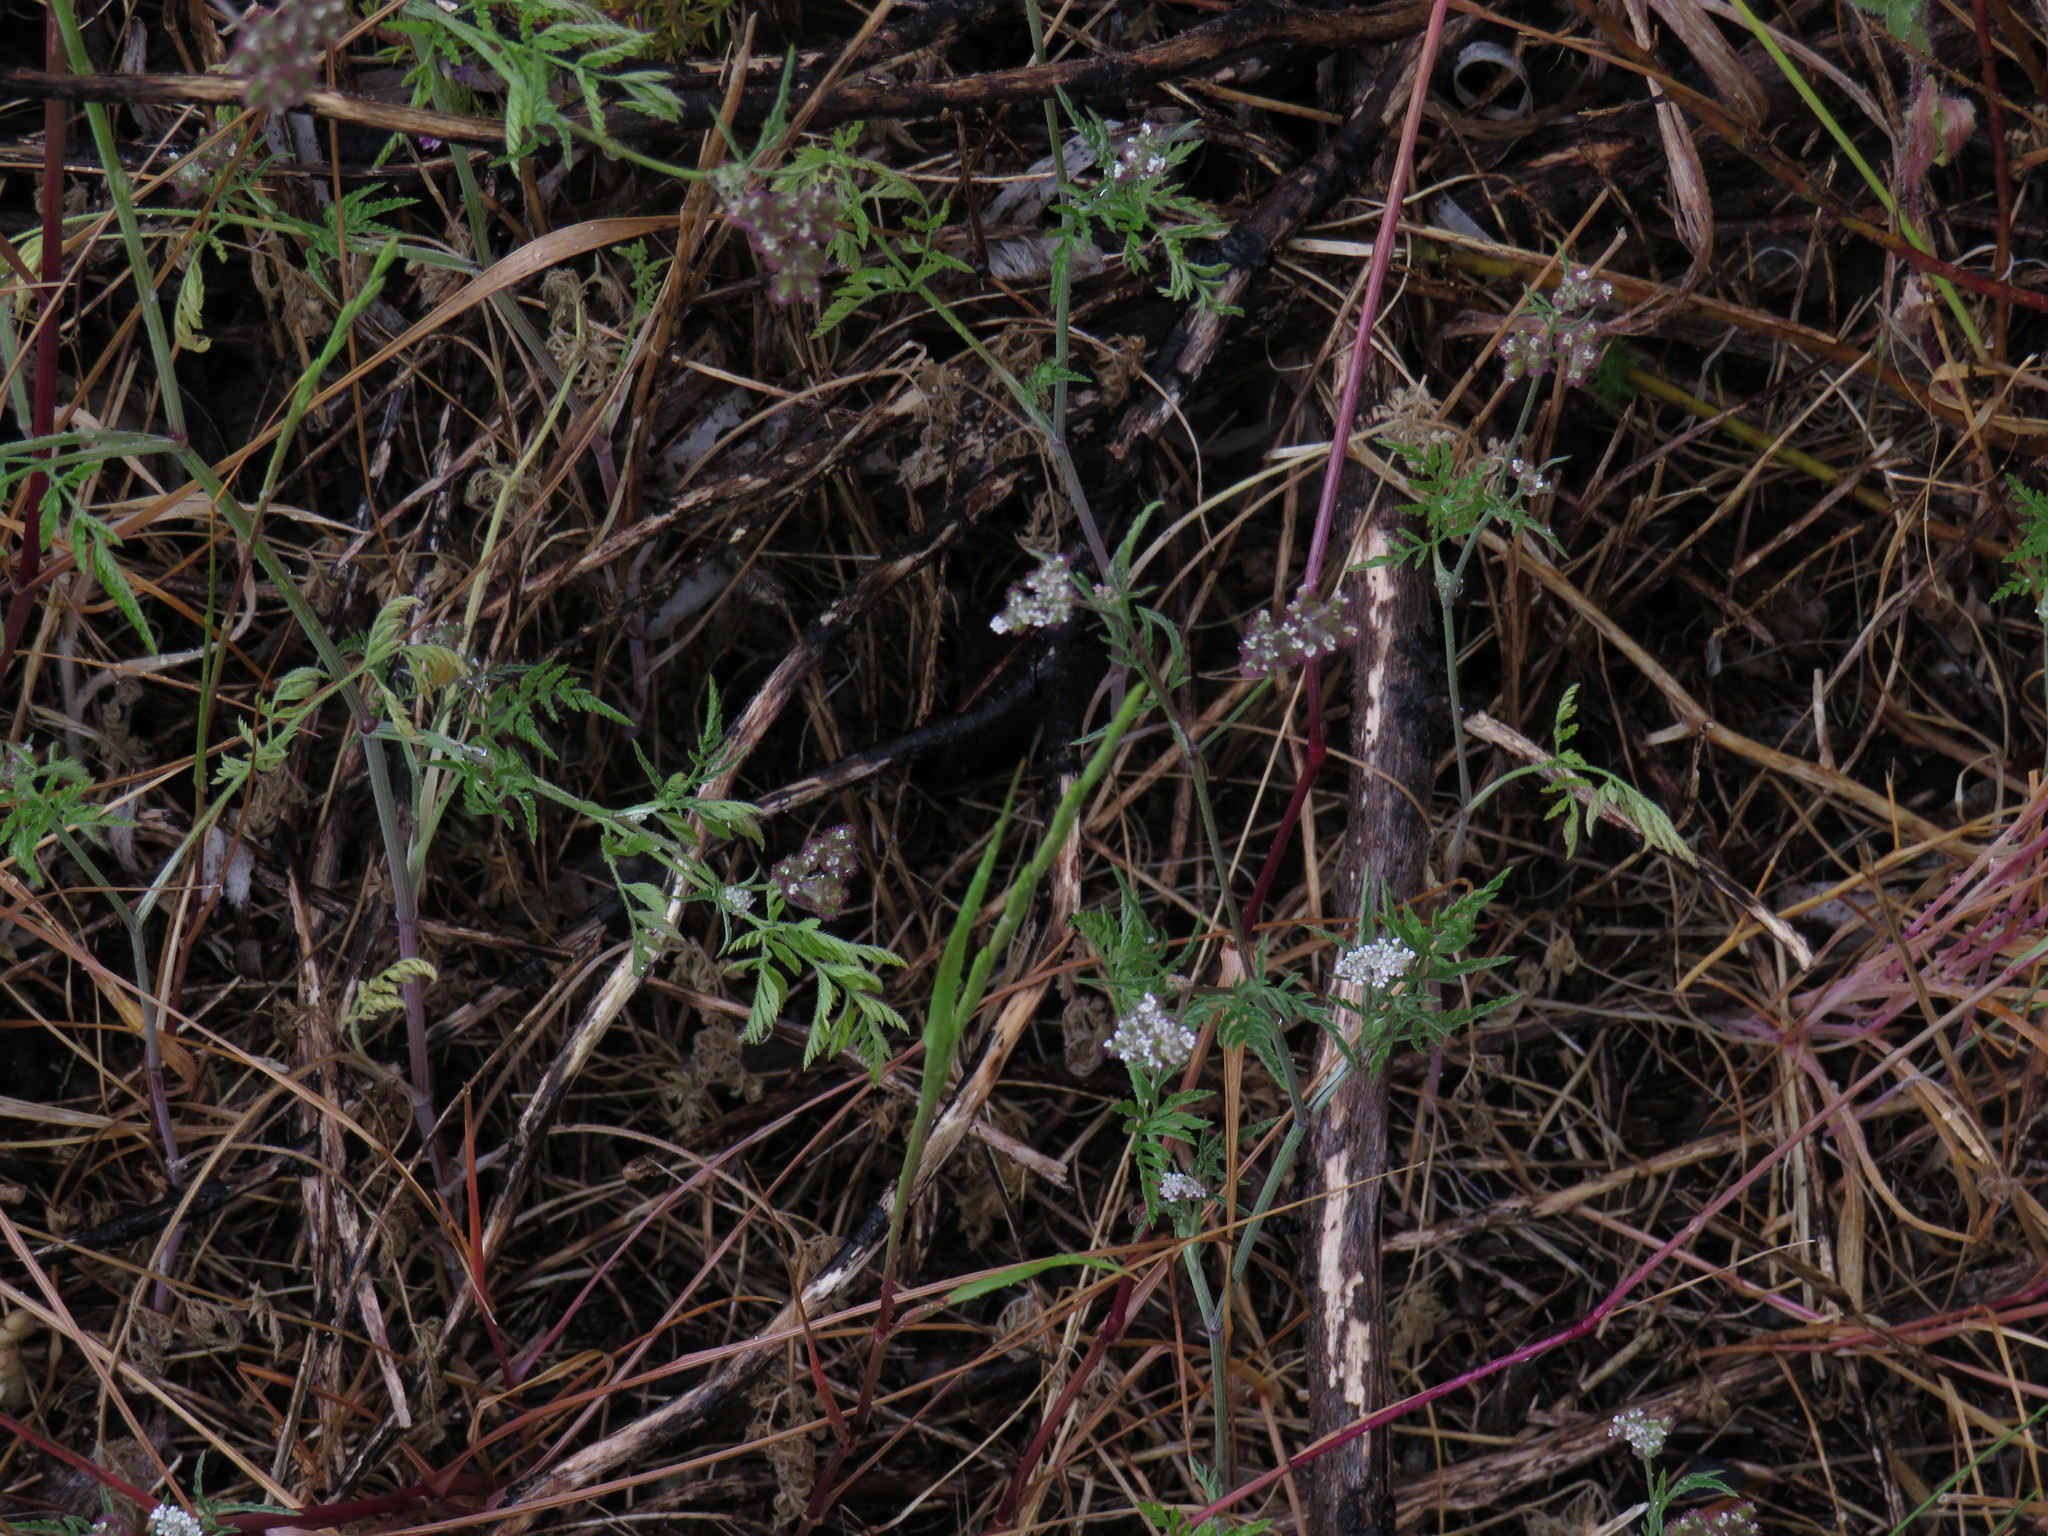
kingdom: Plantae
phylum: Tracheophyta
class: Magnoliopsida
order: Apiales
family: Apiaceae
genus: Torilis
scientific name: Torilis africana
